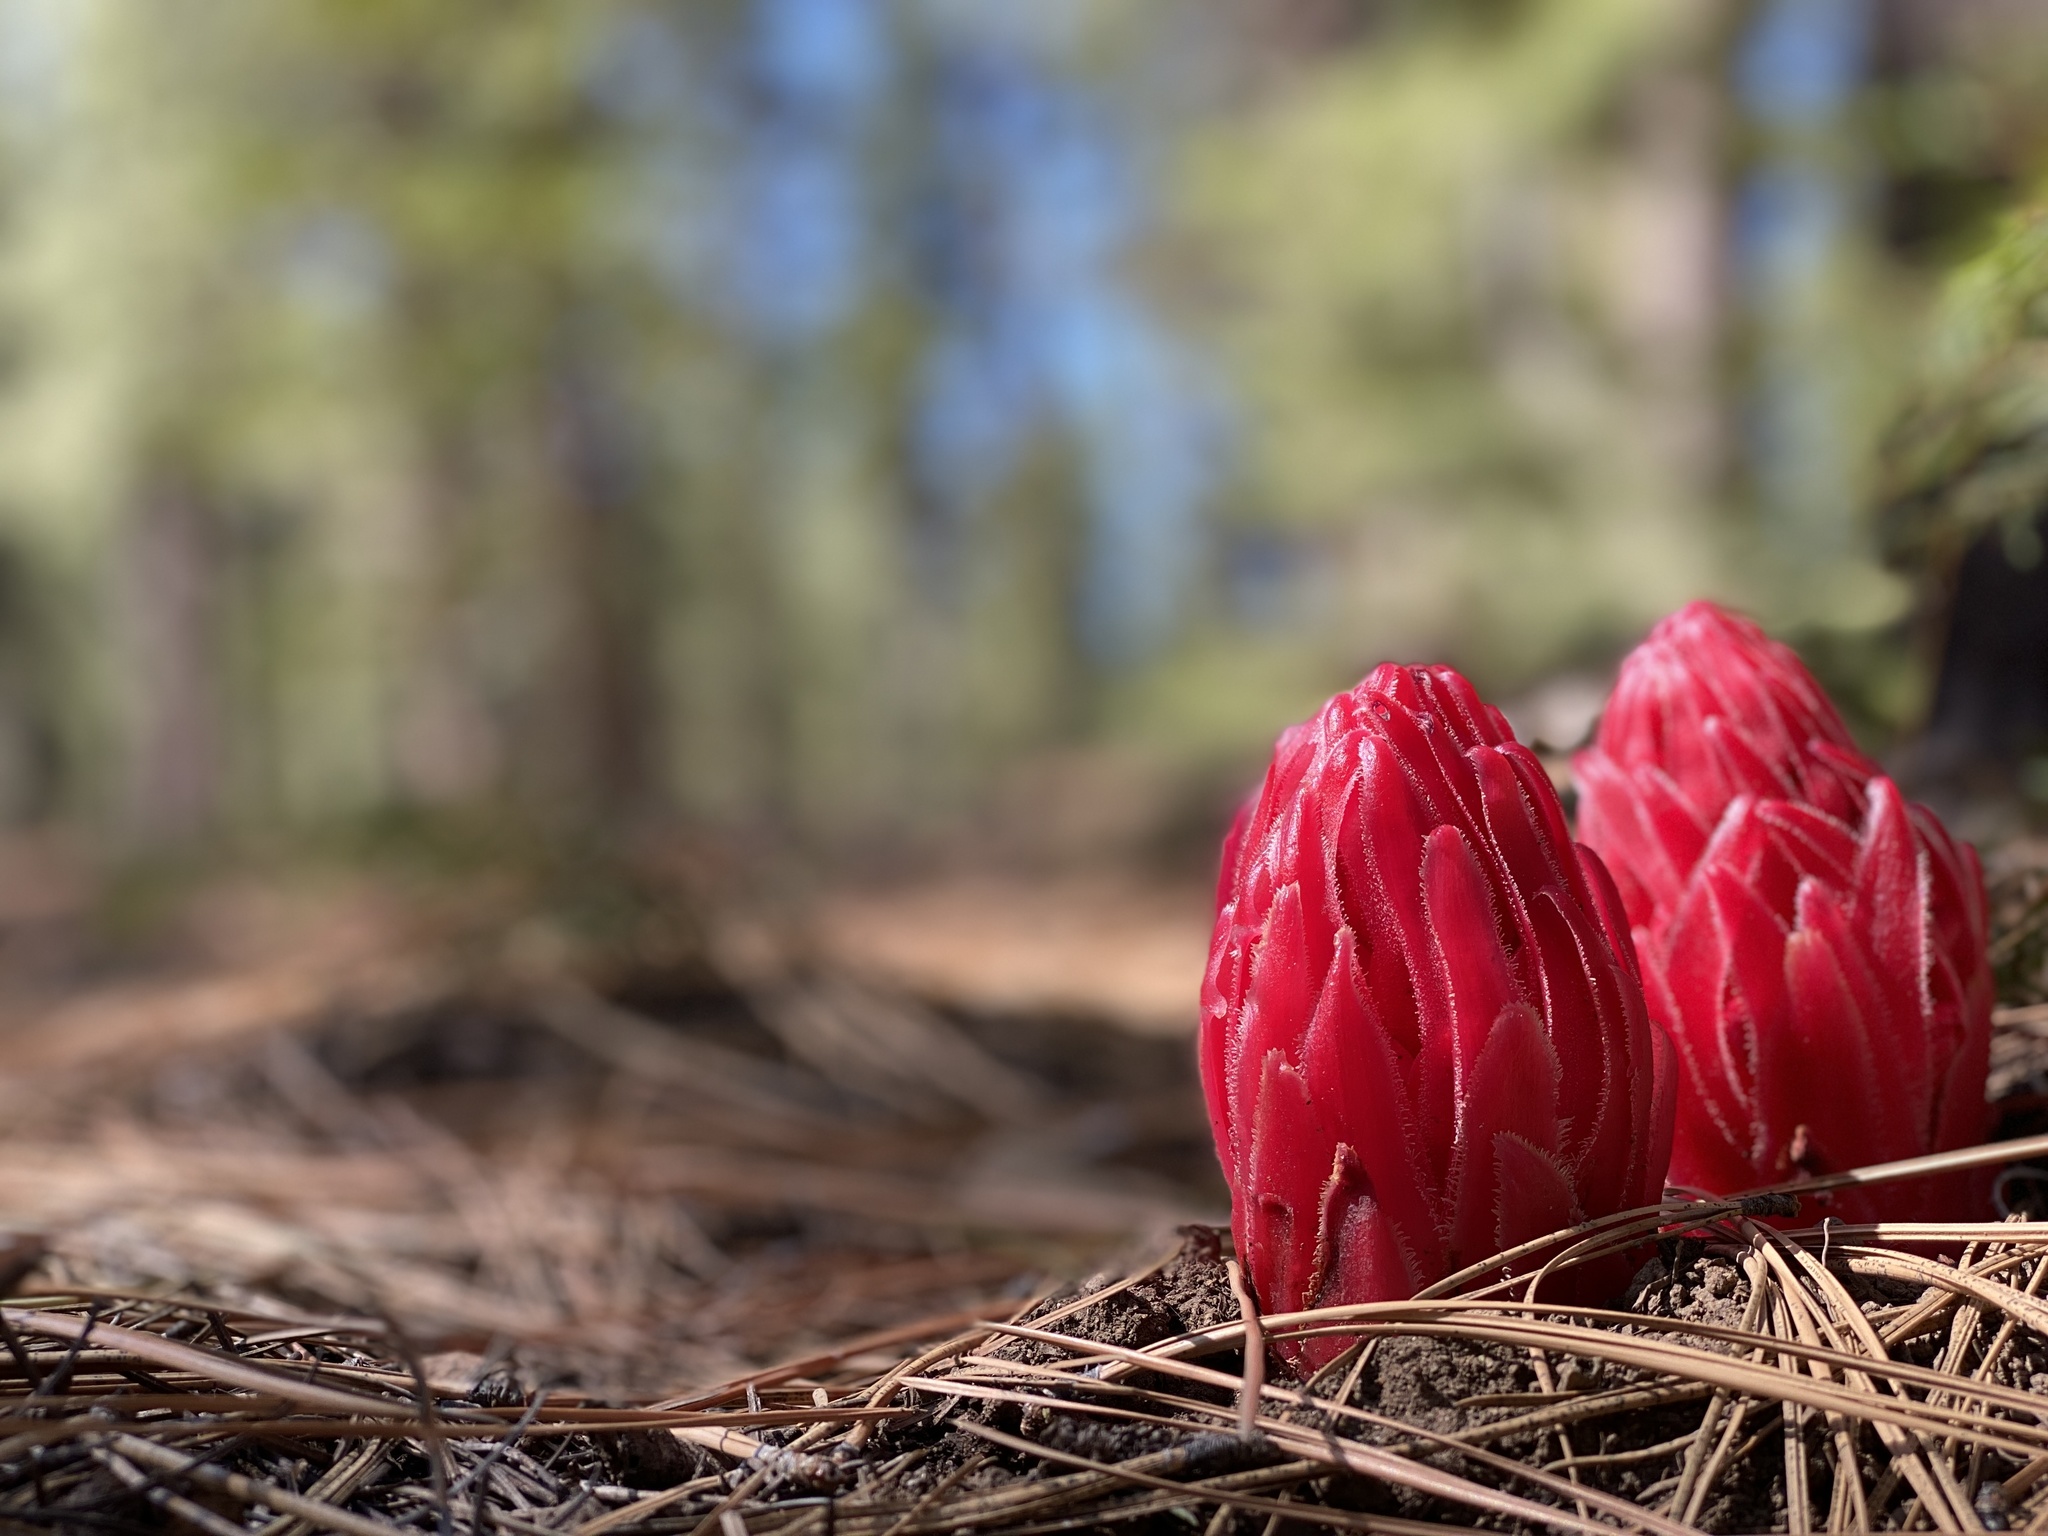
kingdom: Plantae
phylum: Tracheophyta
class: Magnoliopsida
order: Ericales
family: Ericaceae
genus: Sarcodes
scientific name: Sarcodes sanguinea
